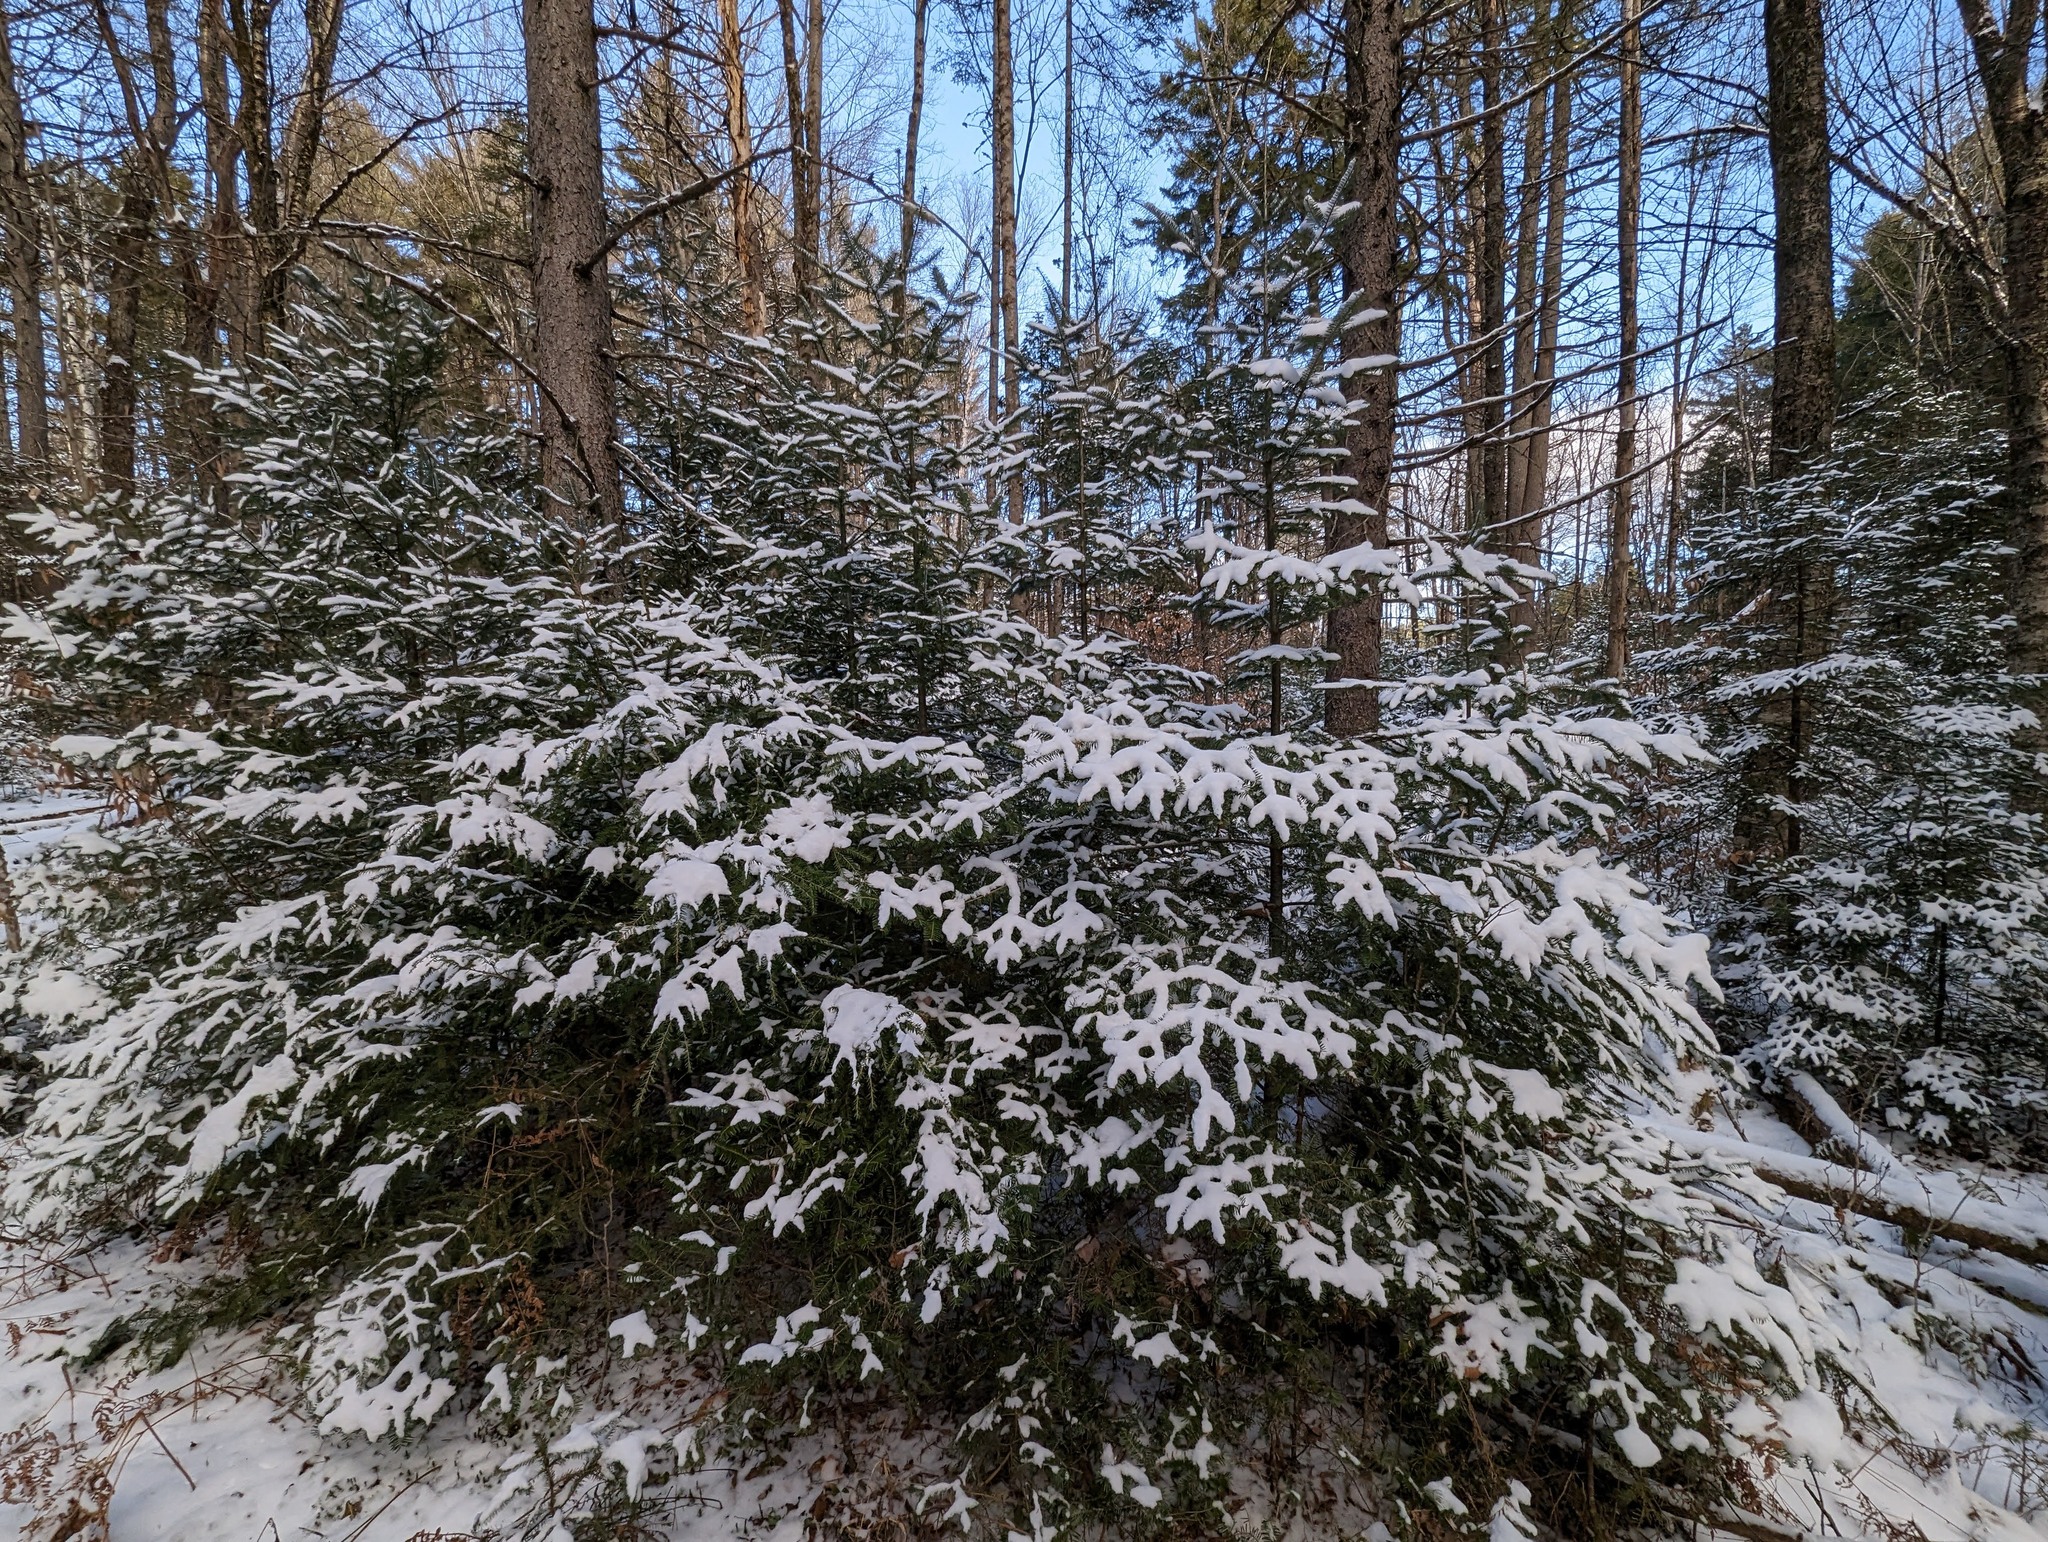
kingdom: Plantae
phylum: Tracheophyta
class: Pinopsida
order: Pinales
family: Pinaceae
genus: Abies
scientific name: Abies balsamea
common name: Balsam fir
